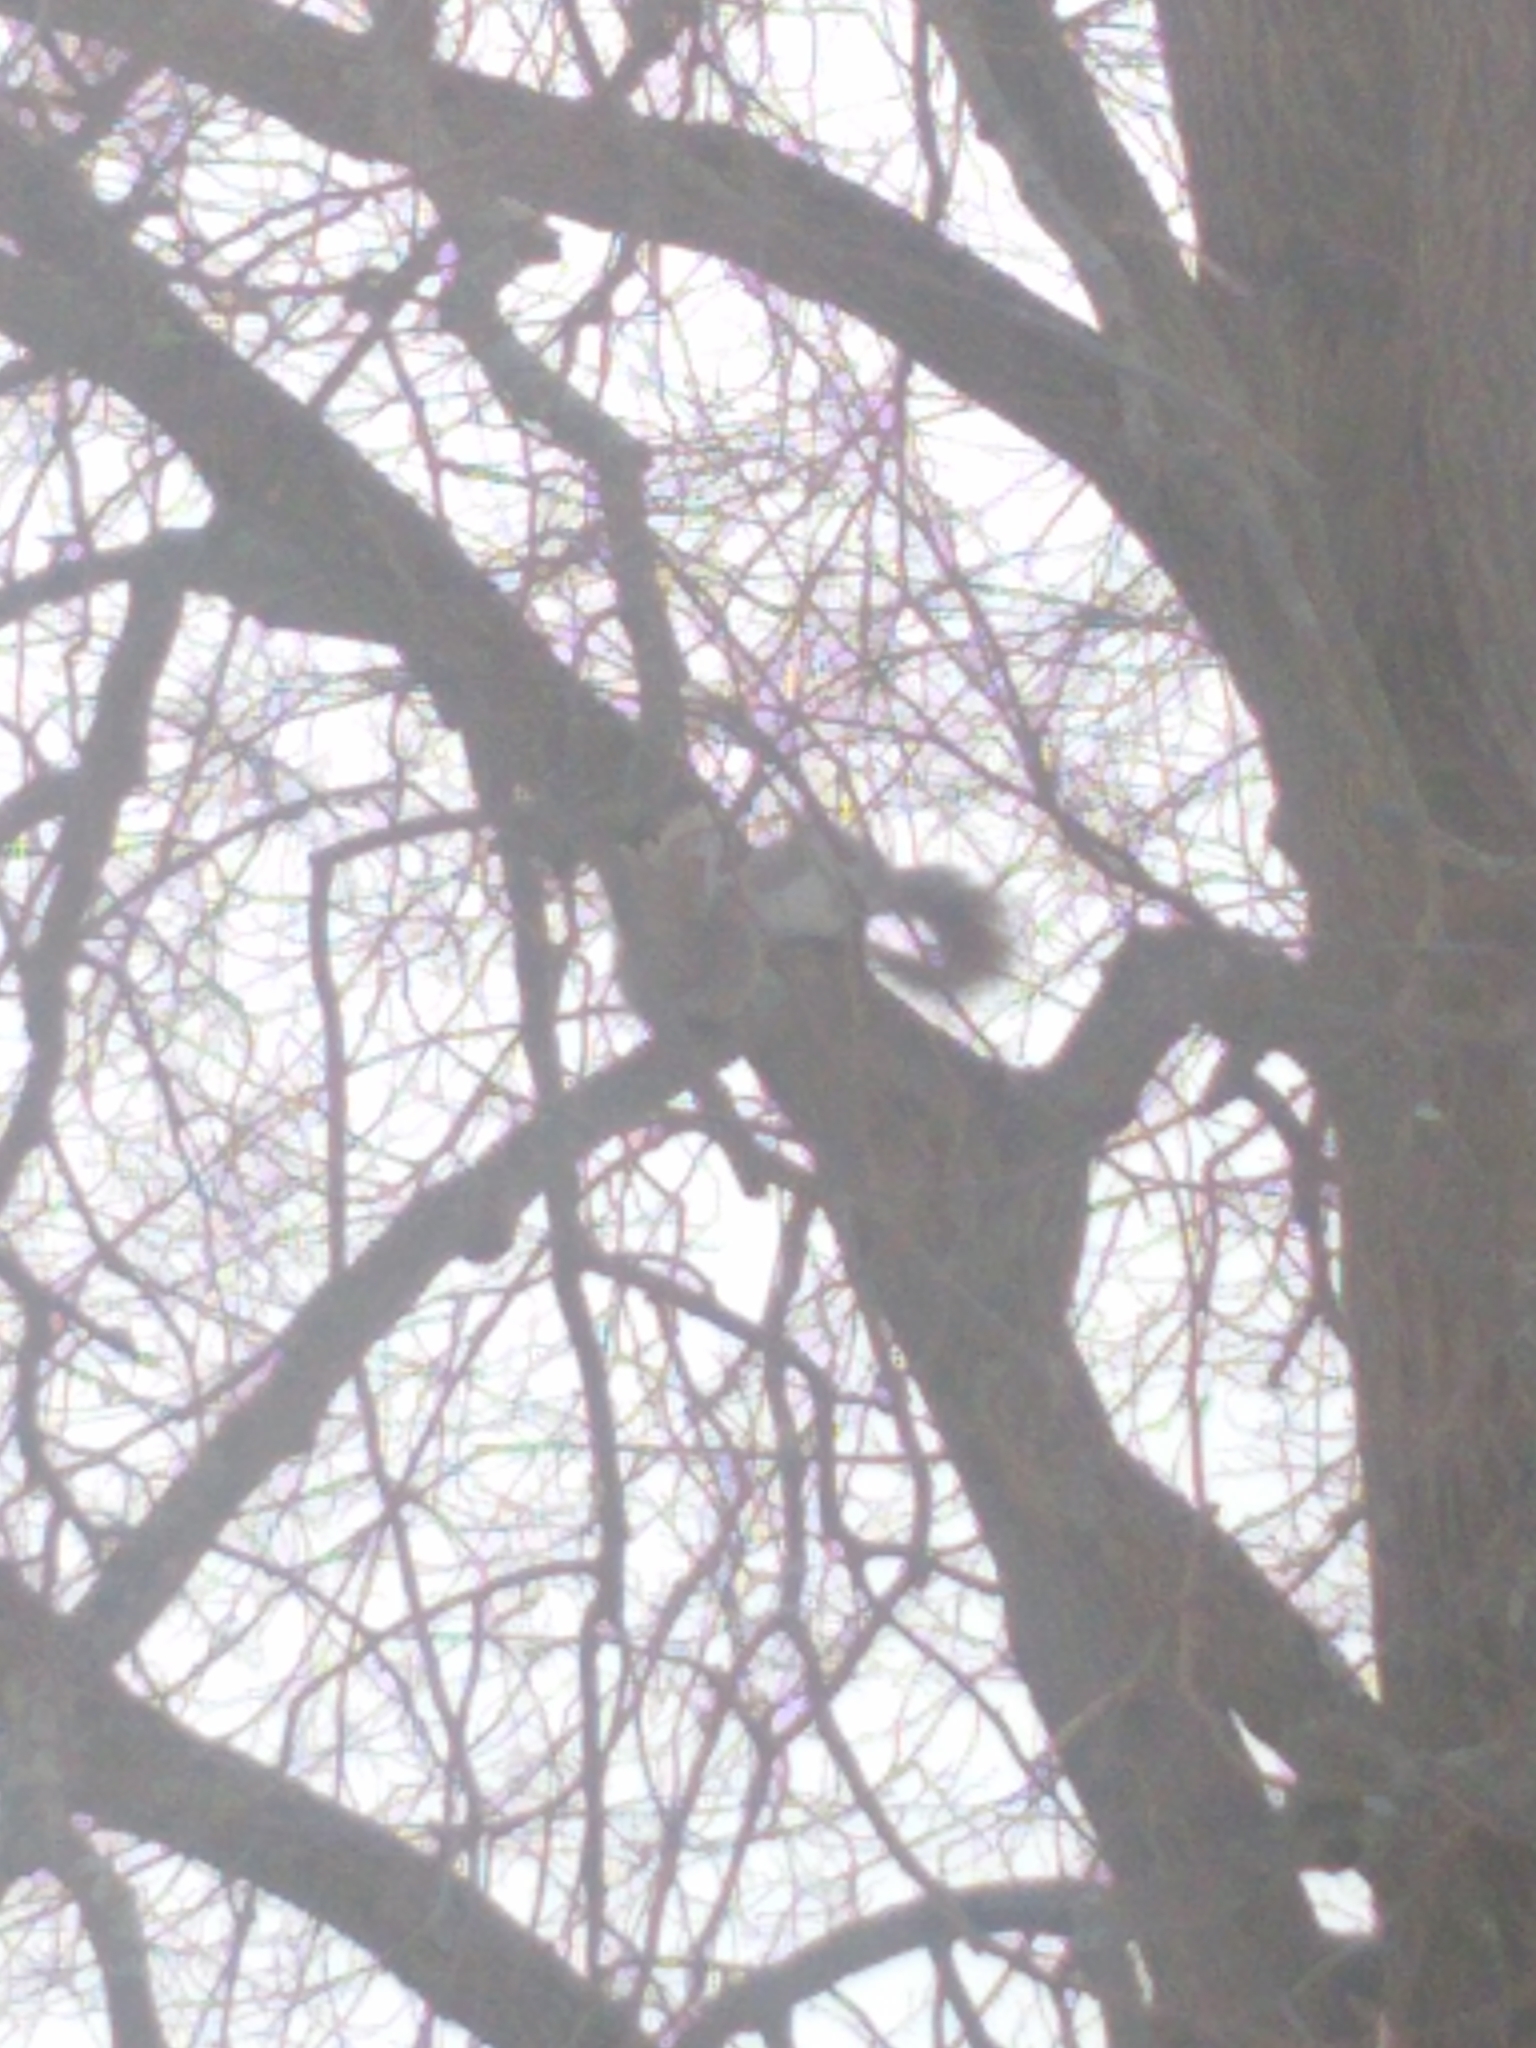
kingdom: Animalia
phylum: Chordata
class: Mammalia
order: Rodentia
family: Sciuridae
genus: Sciurus
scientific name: Sciurus carolinensis
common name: Eastern gray squirrel
